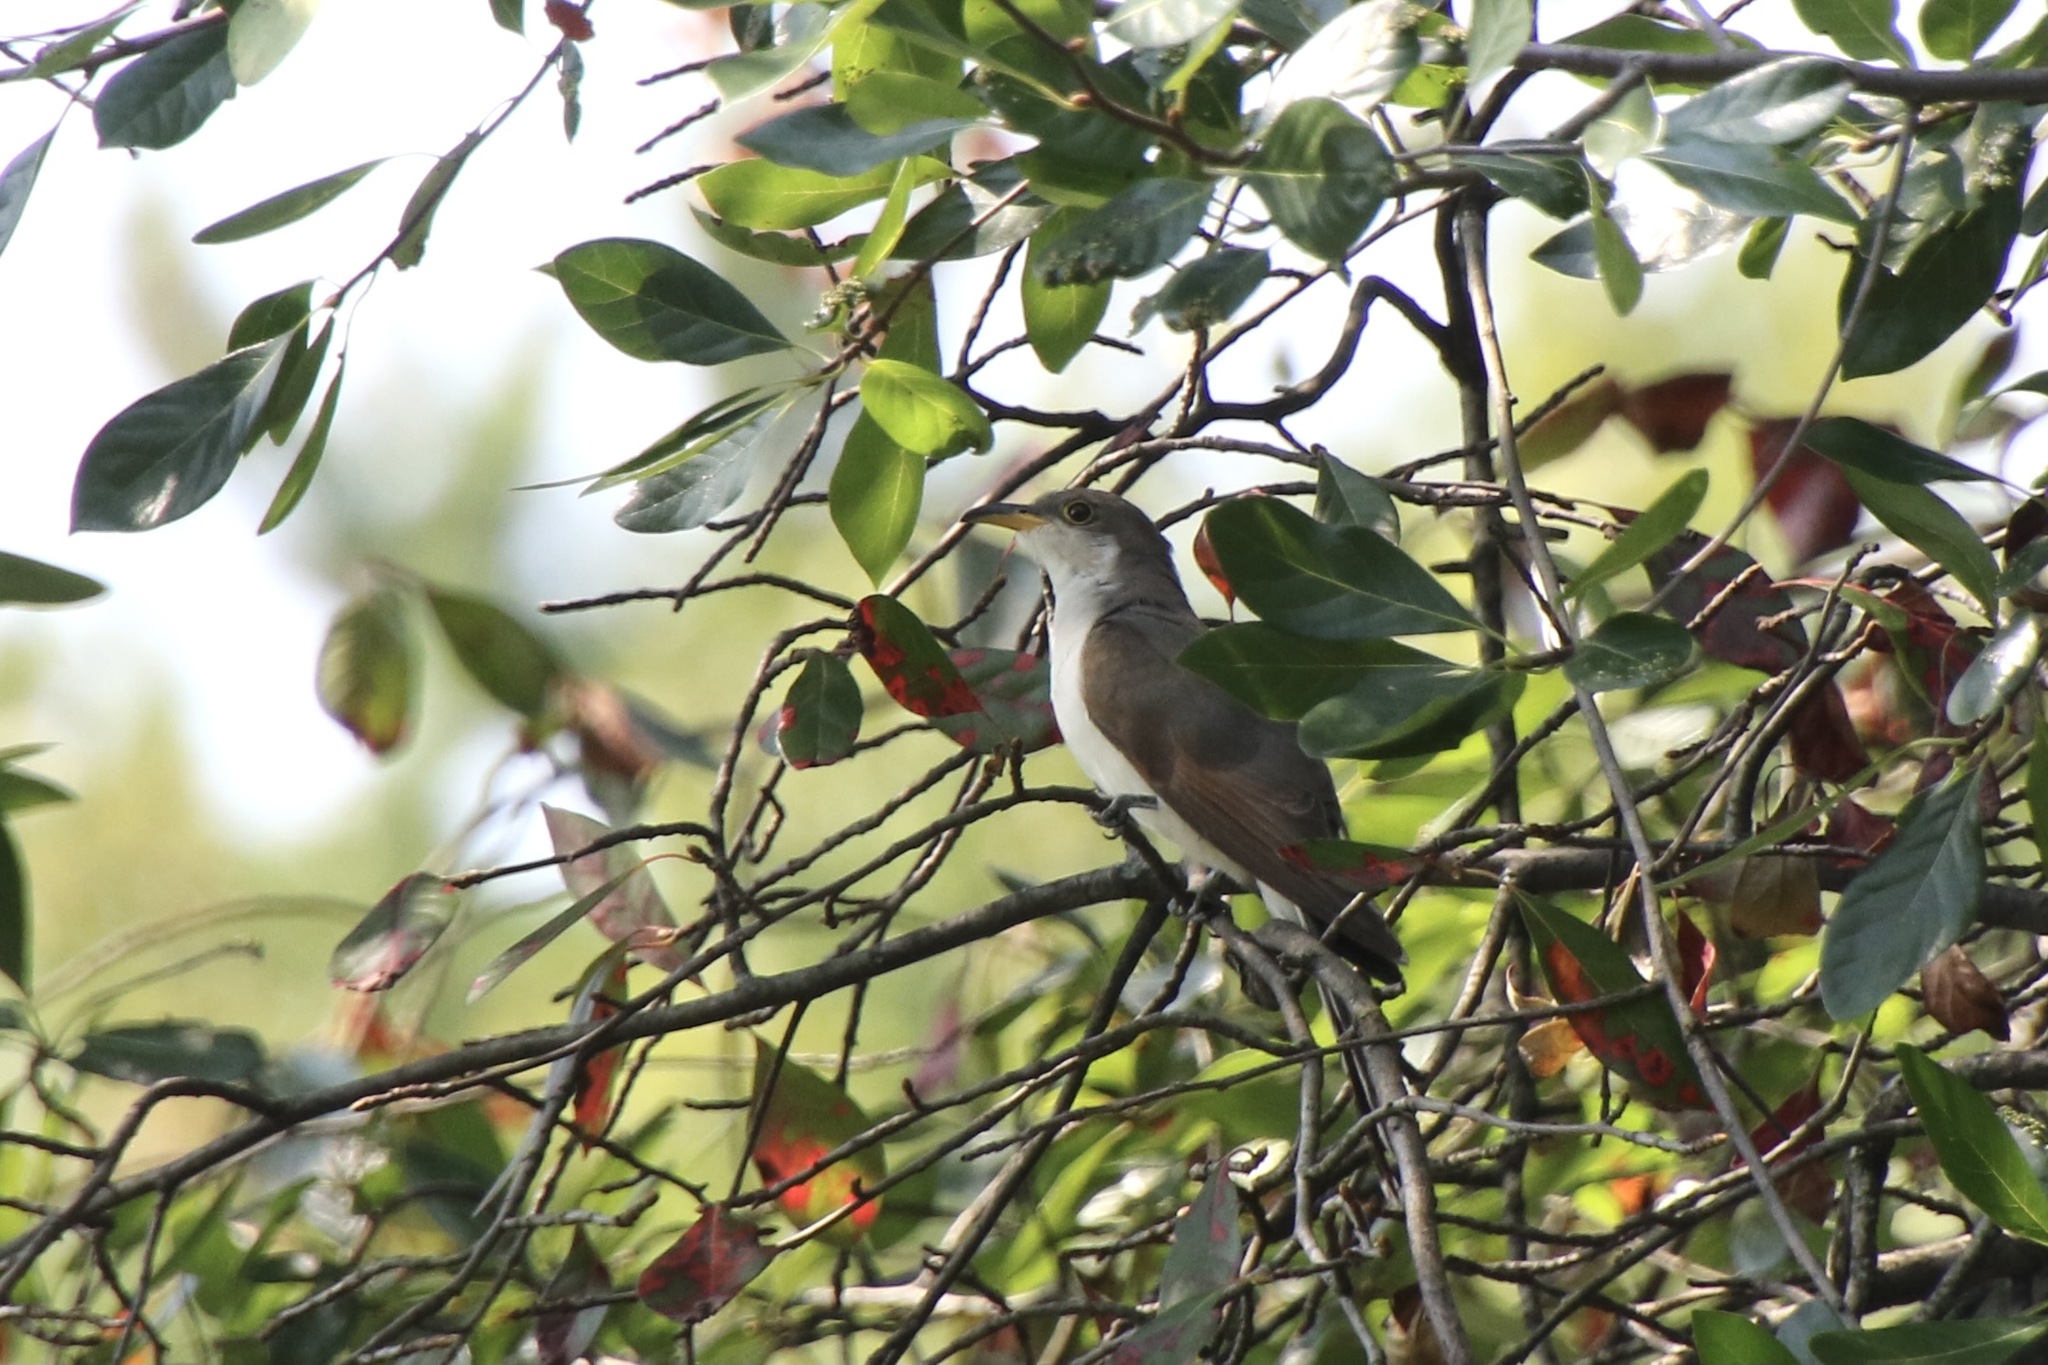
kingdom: Animalia
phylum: Chordata
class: Aves
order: Cuculiformes
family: Cuculidae
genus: Coccyzus
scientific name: Coccyzus americanus
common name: Yellow-billed cuckoo
